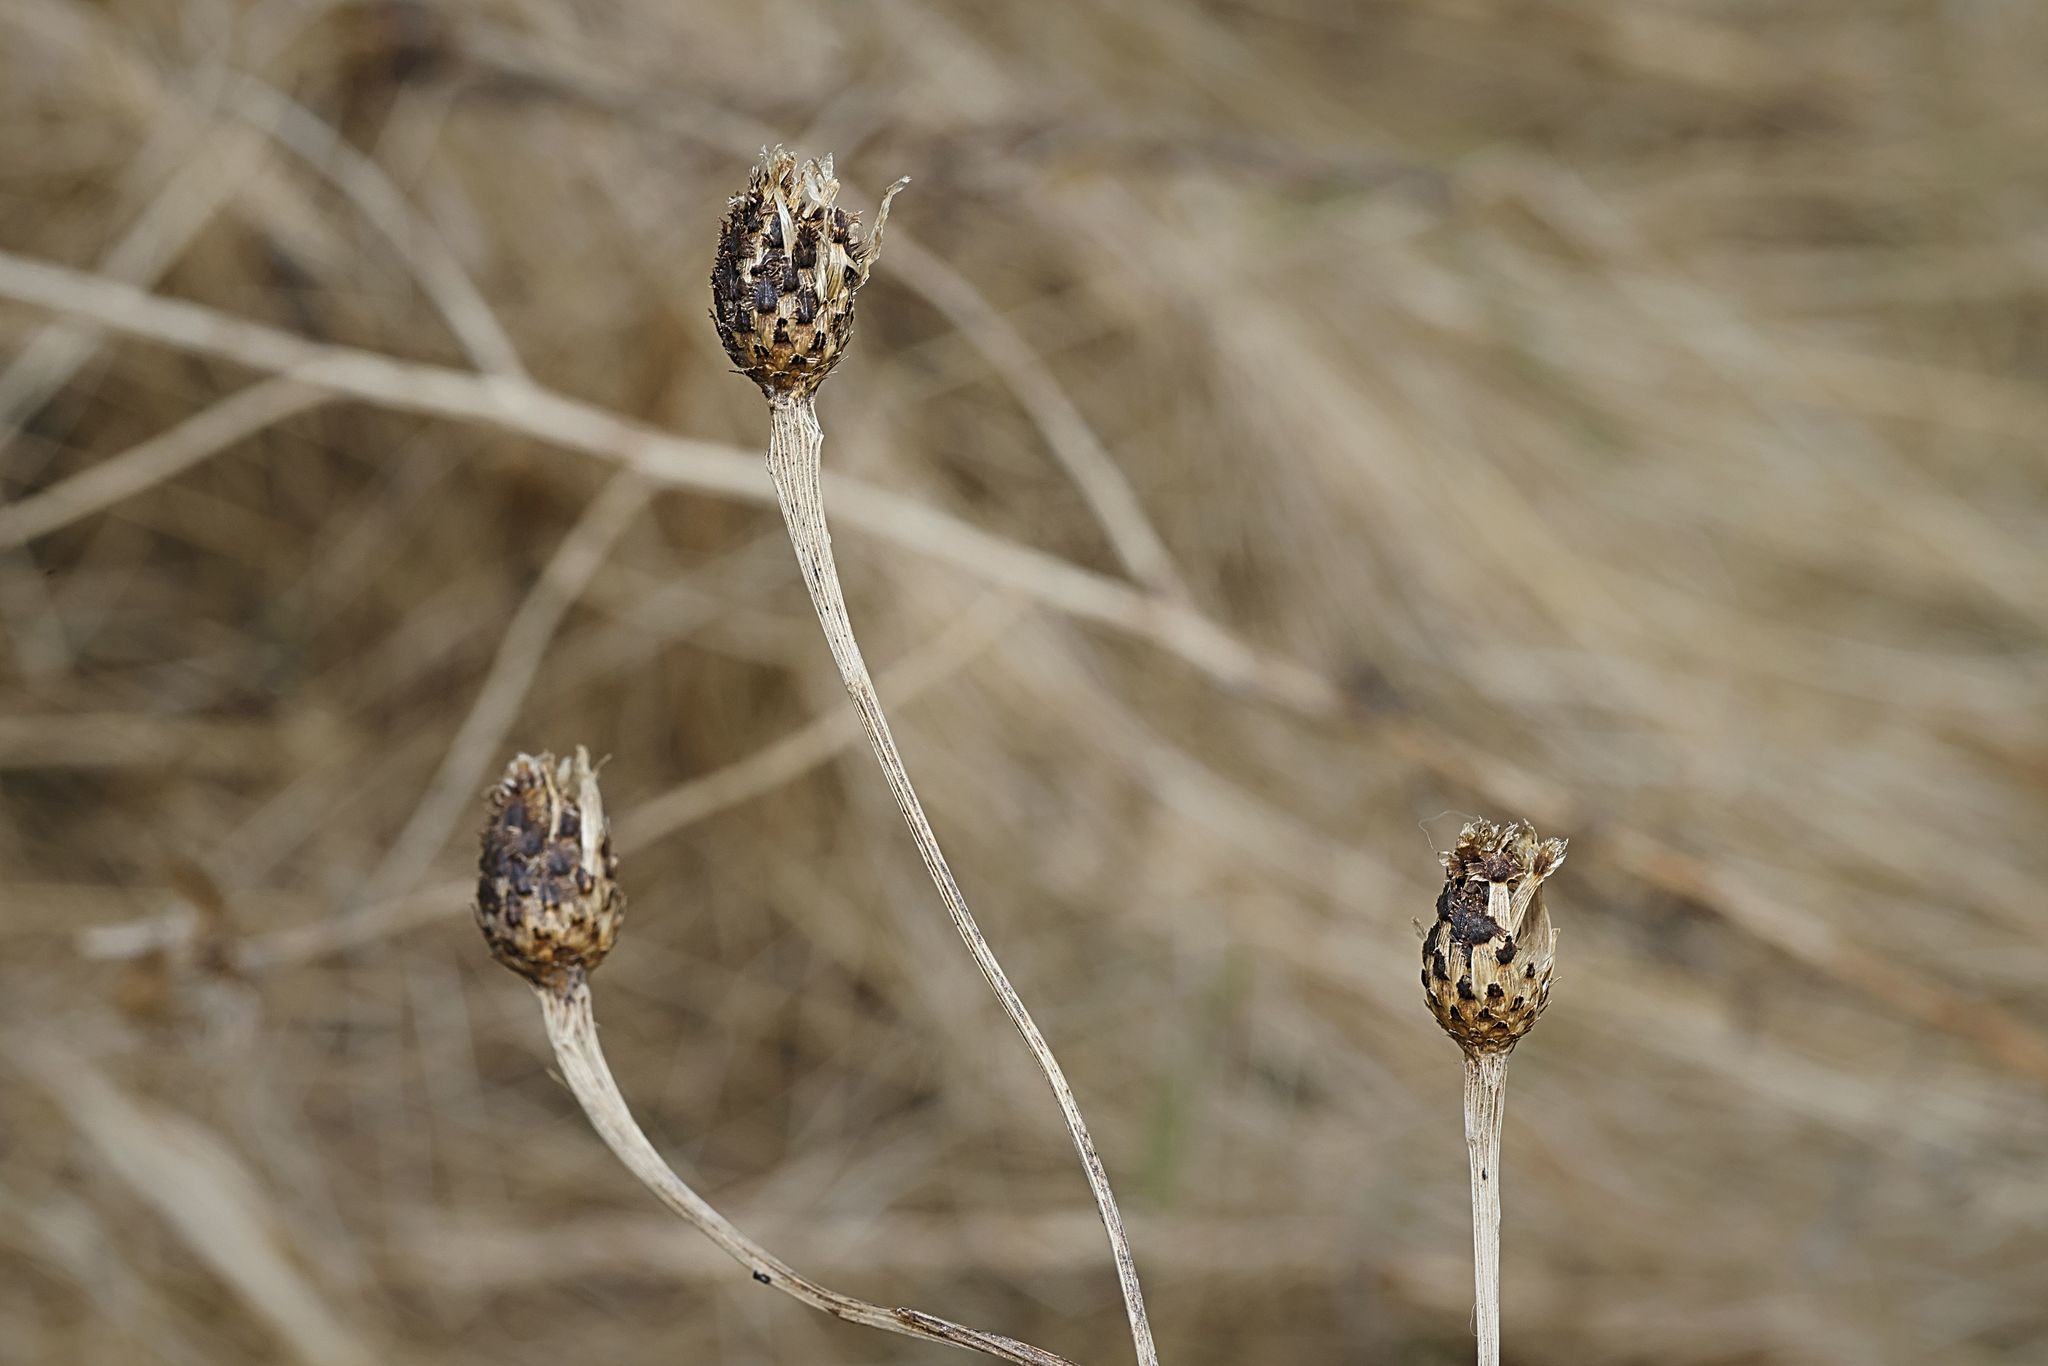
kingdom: Plantae
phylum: Tracheophyta
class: Magnoliopsida
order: Asterales
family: Asteraceae
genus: Centaurea
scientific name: Centaurea nigra
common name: Lesser knapweed
